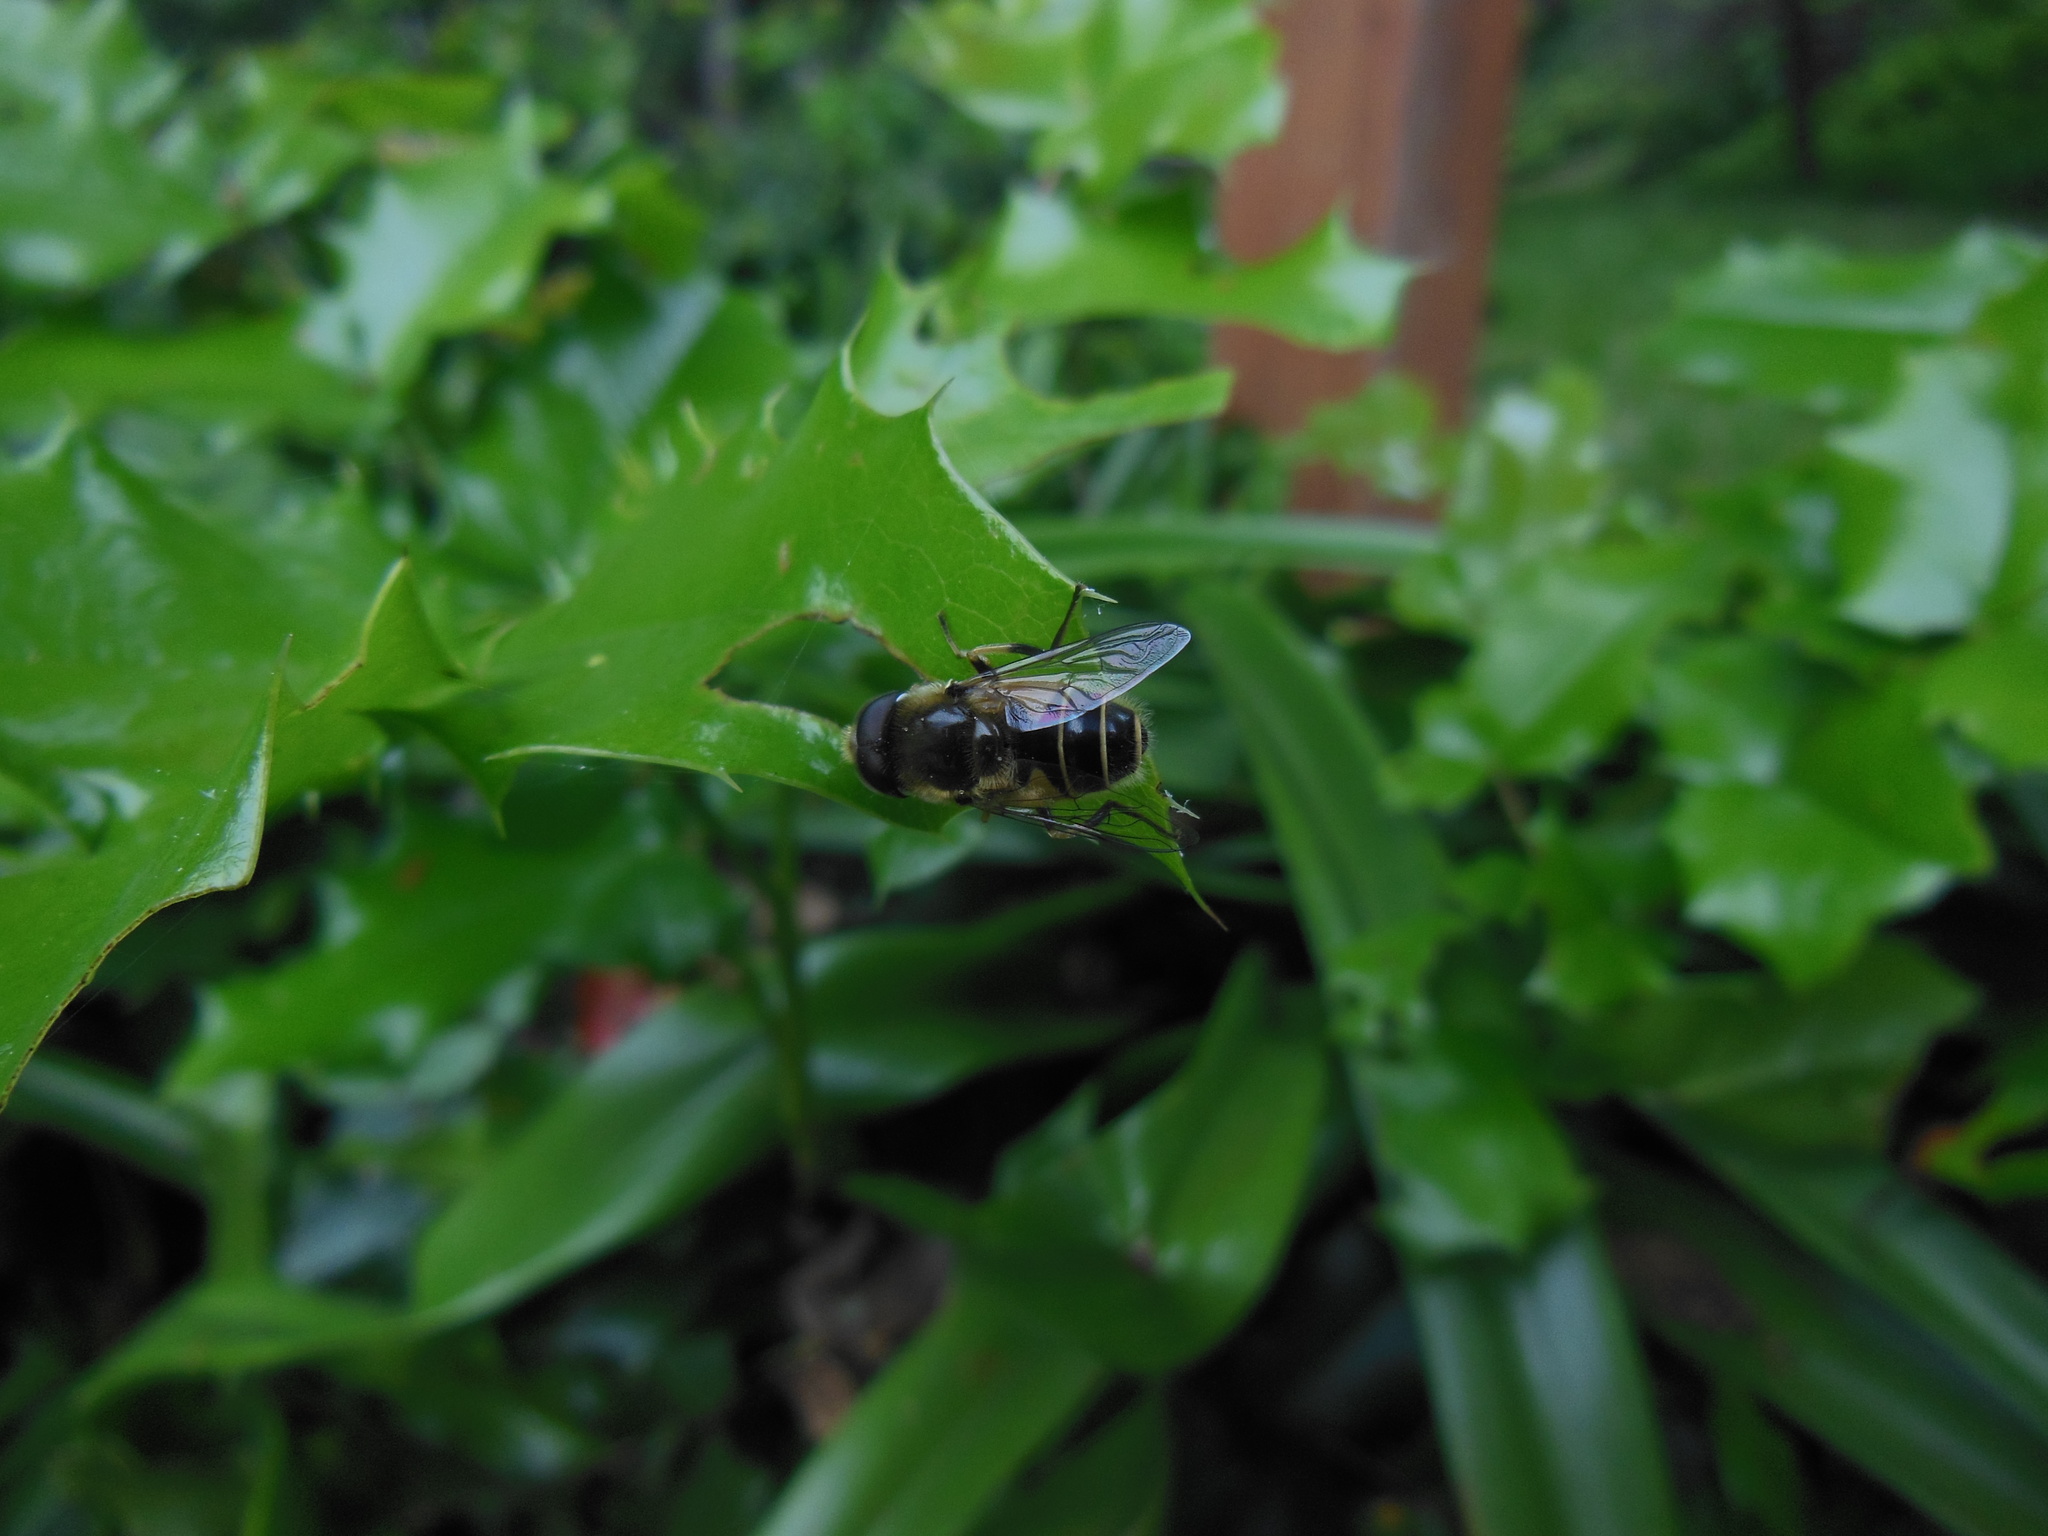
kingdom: Animalia
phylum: Arthropoda
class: Insecta
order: Diptera
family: Syrphidae
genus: Eoseristalis
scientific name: Eoseristalis
